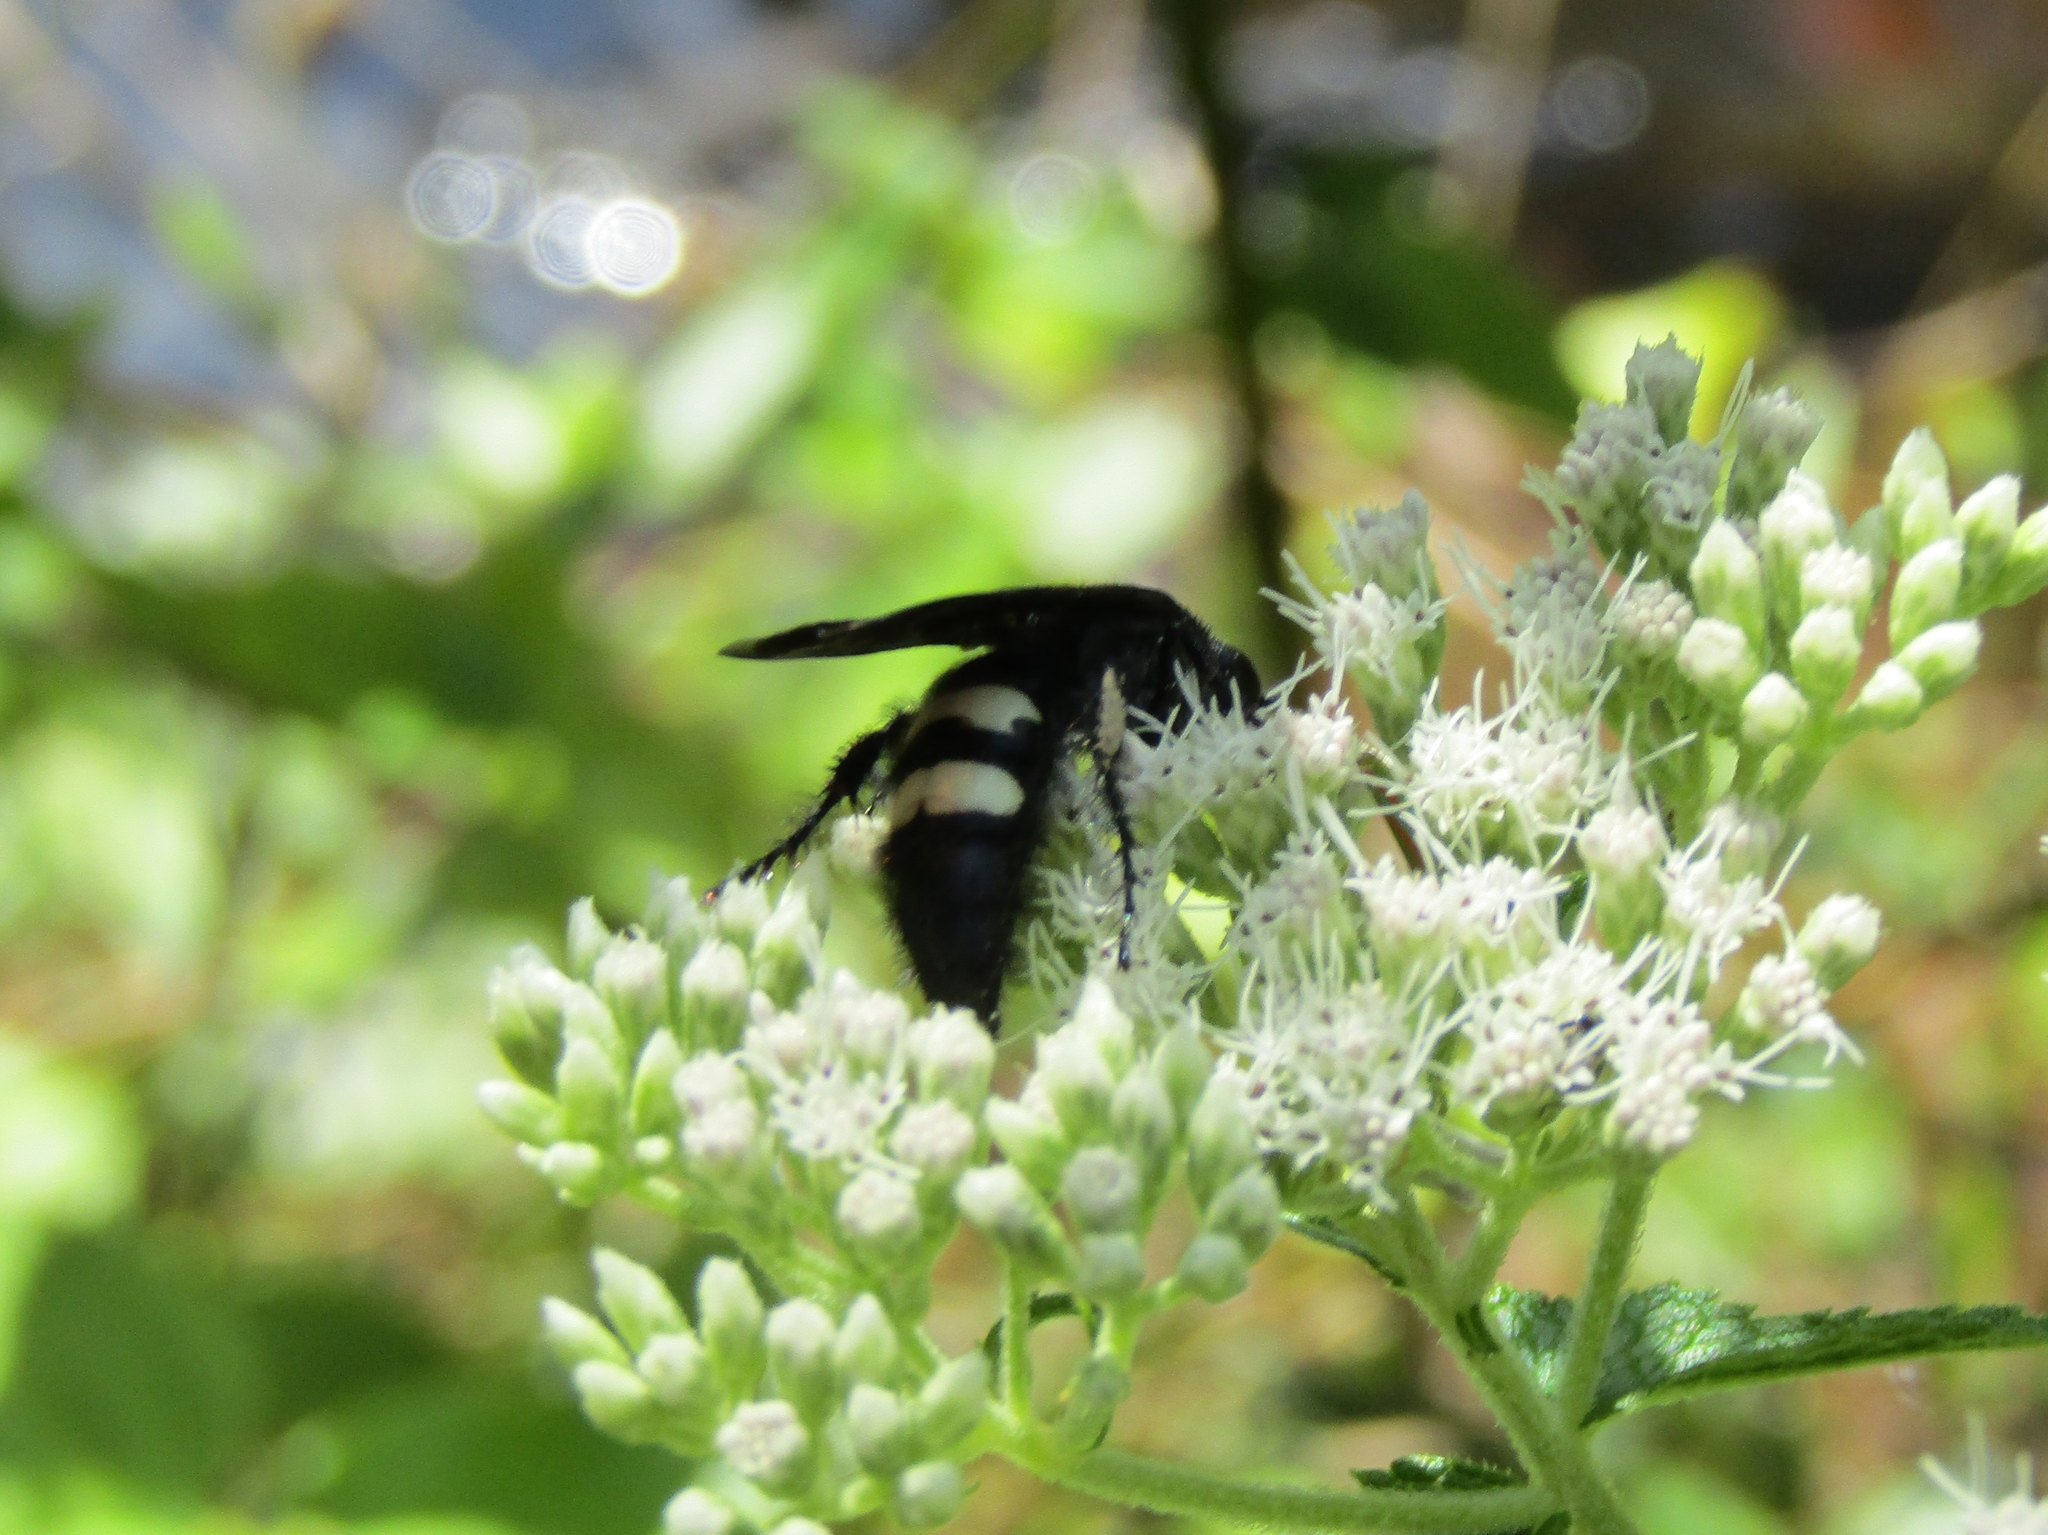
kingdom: Animalia
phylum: Arthropoda
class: Insecta
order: Hymenoptera
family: Scoliidae
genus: Scolia
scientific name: Scolia bicincta
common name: Double-banded scoliid wasp
